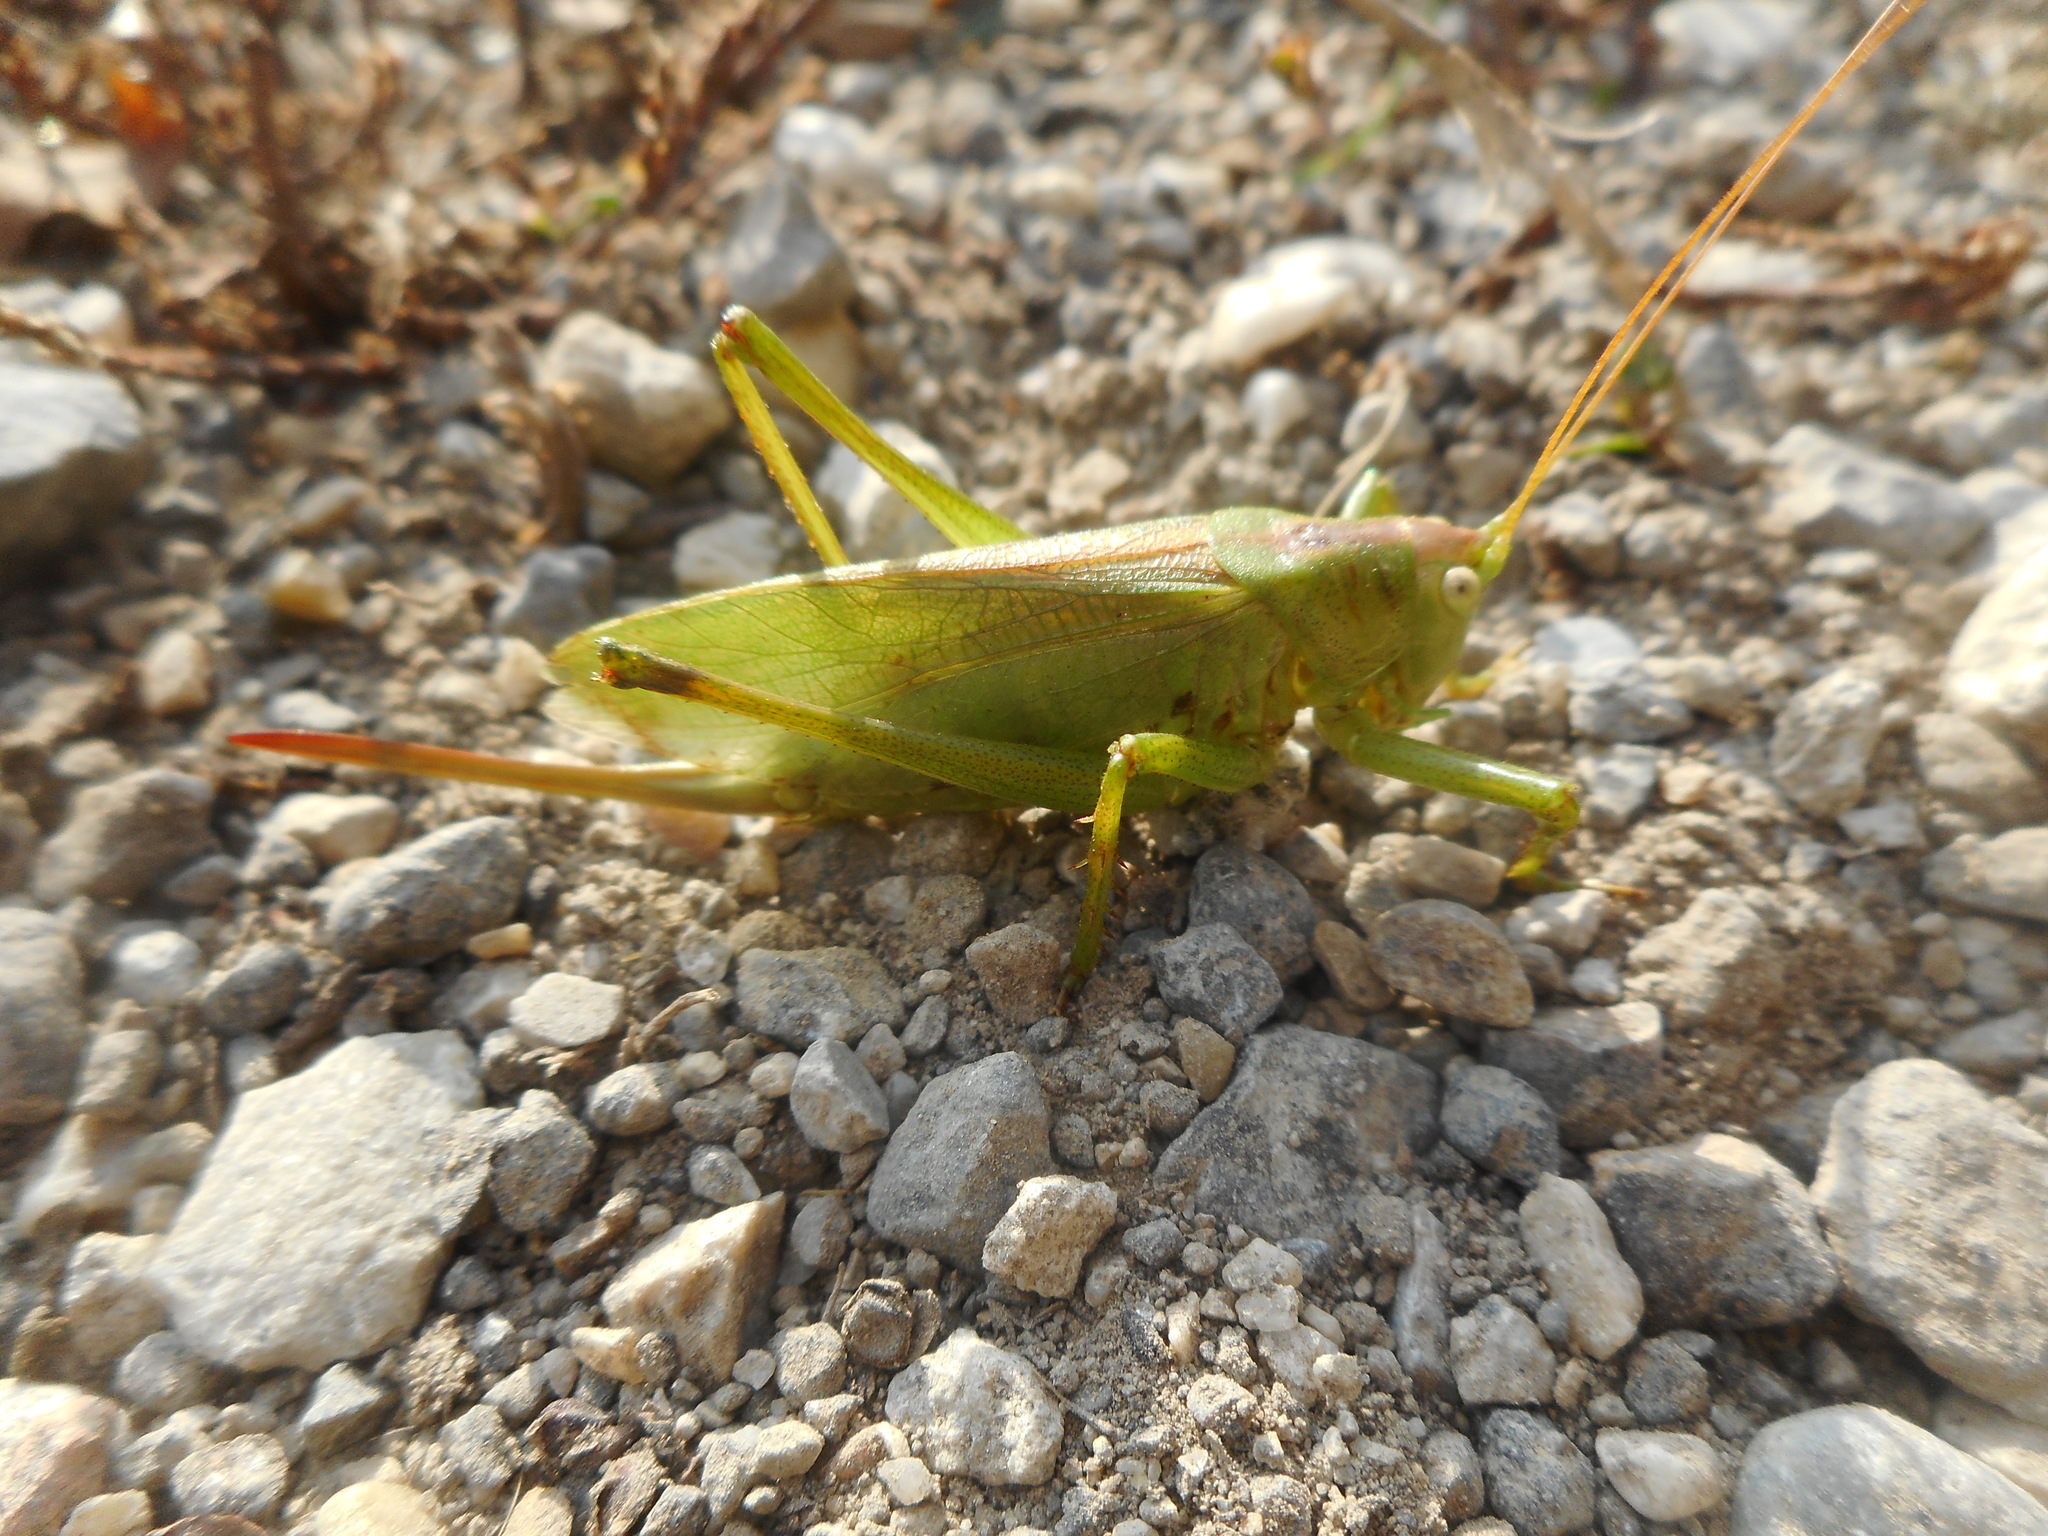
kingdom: Animalia
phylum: Arthropoda
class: Insecta
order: Orthoptera
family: Tettigoniidae
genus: Tettigonia
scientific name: Tettigonia cantans
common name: Upland green bush-cricket
